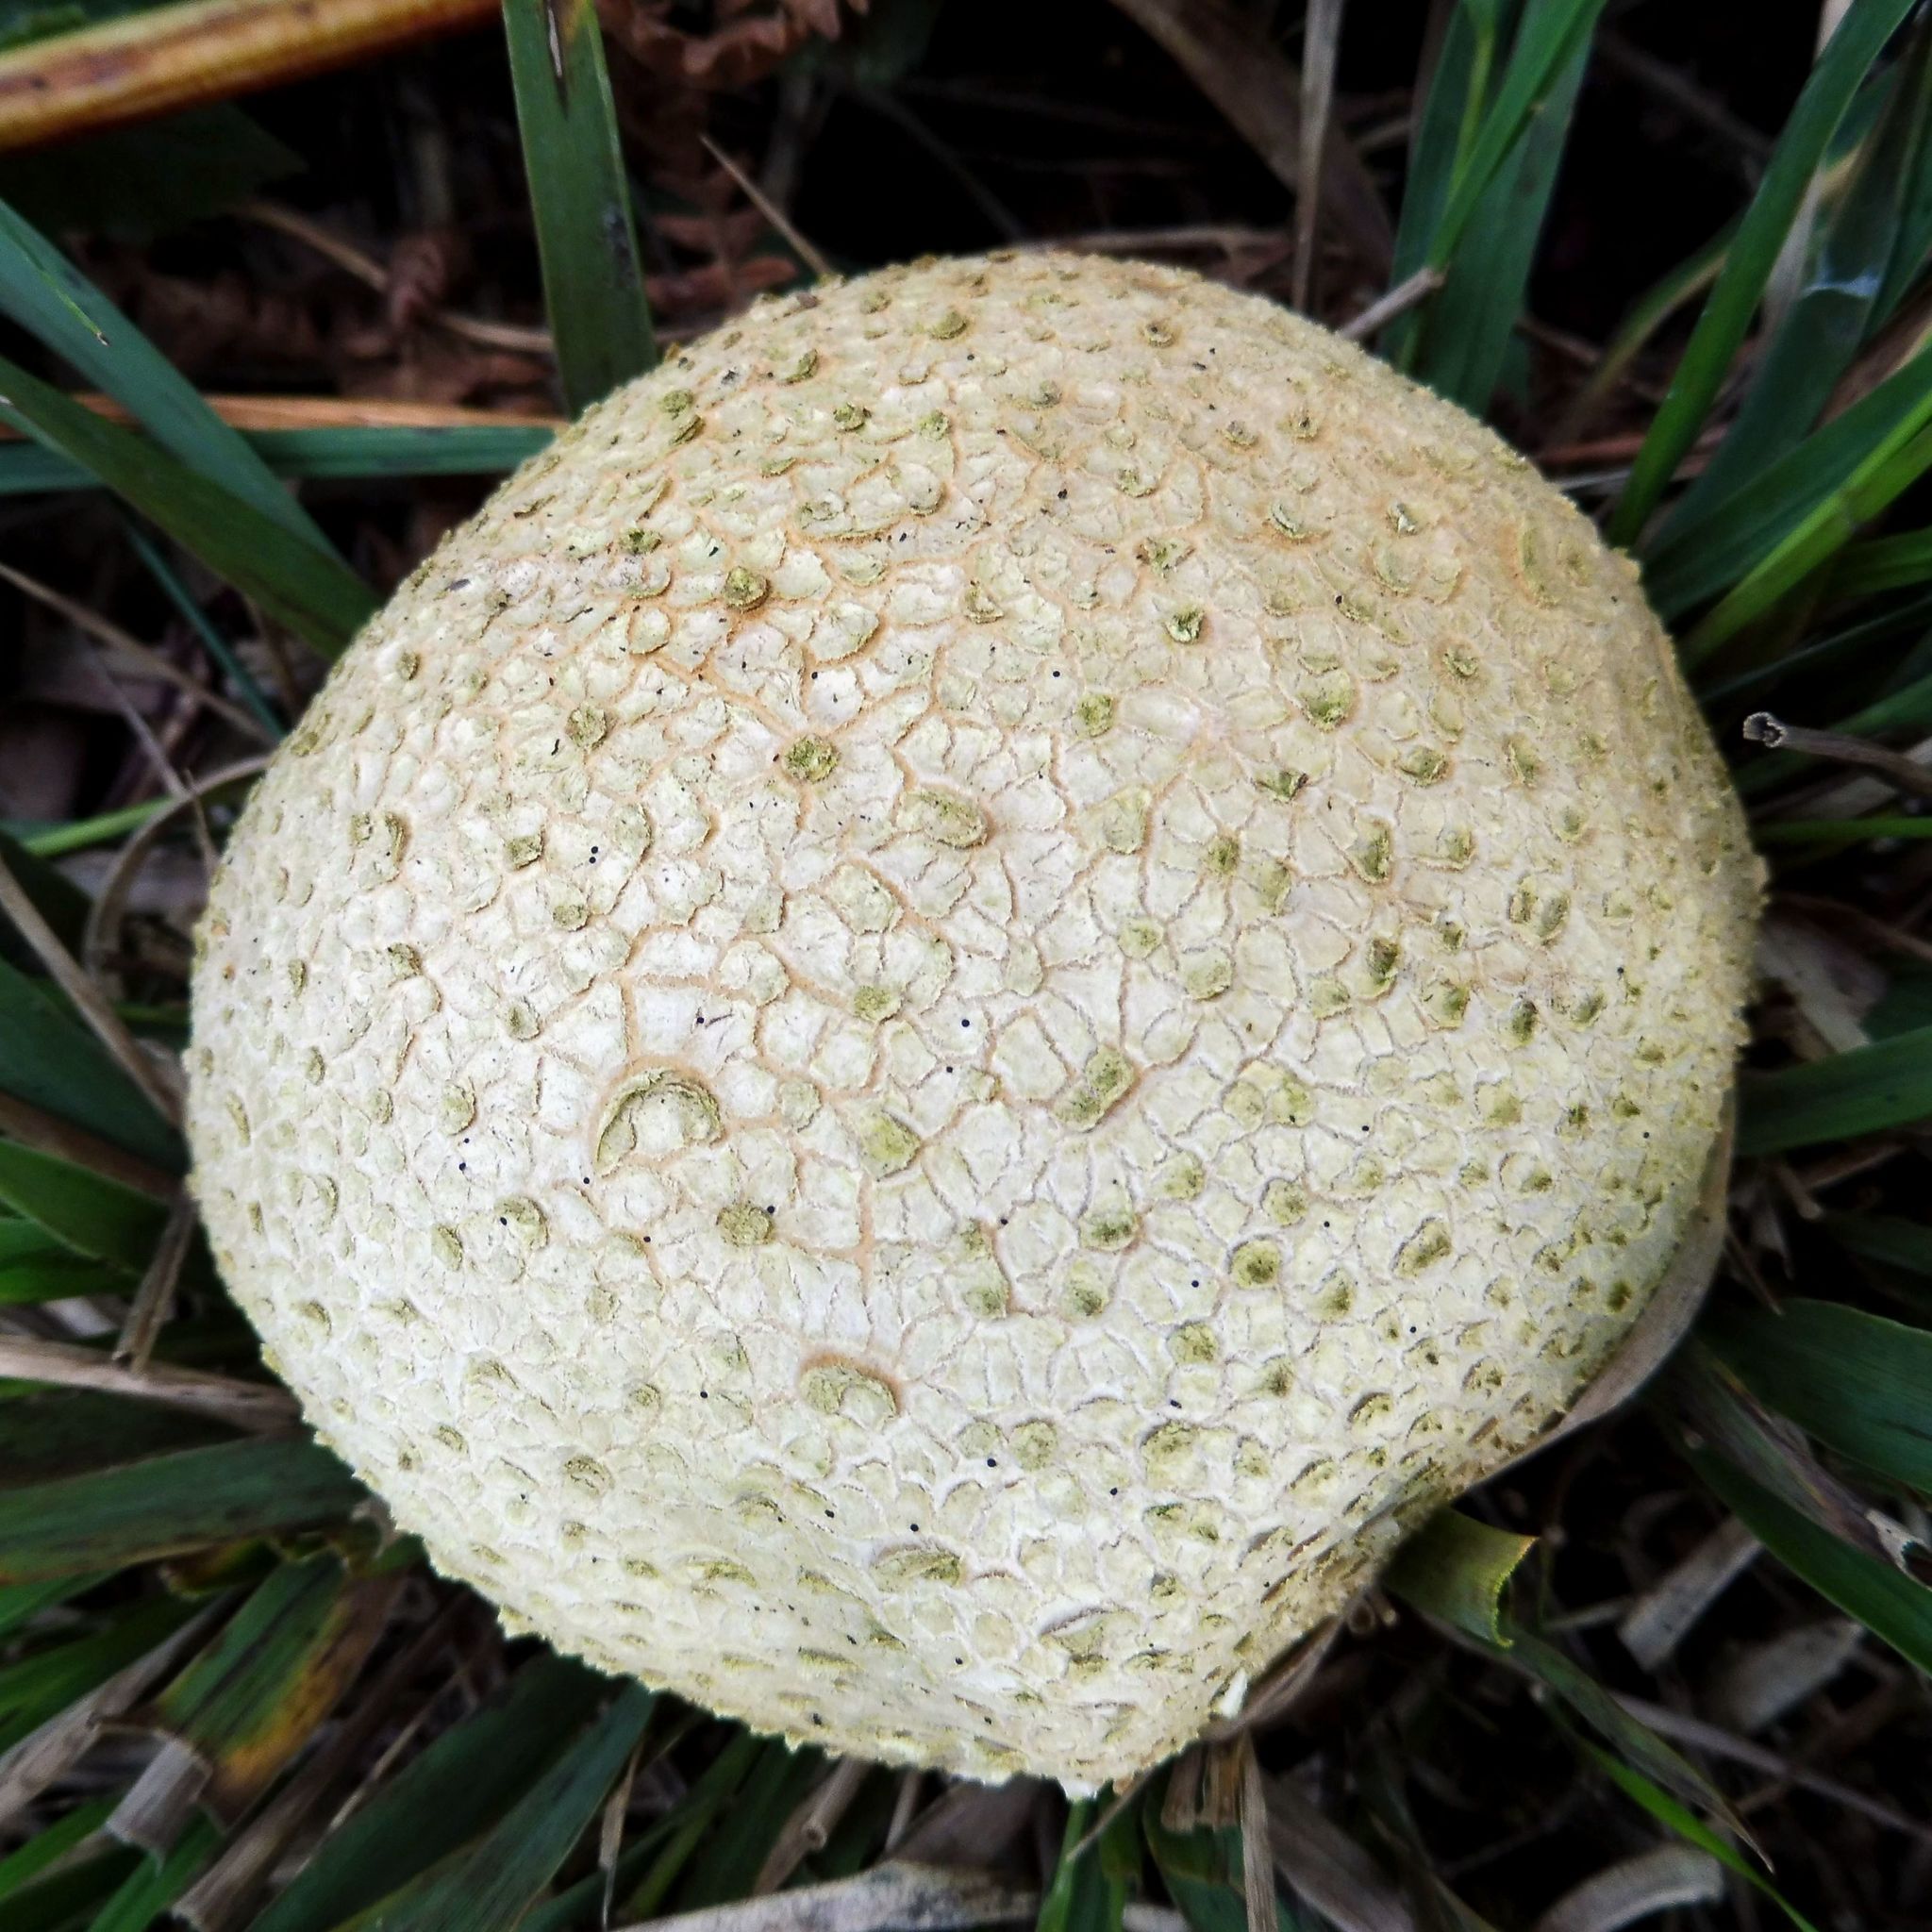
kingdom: Fungi
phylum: Basidiomycota
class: Agaricomycetes
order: Boletales
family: Sclerodermataceae
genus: Scleroderma
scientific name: Scleroderma citrinum
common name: Common earthball
